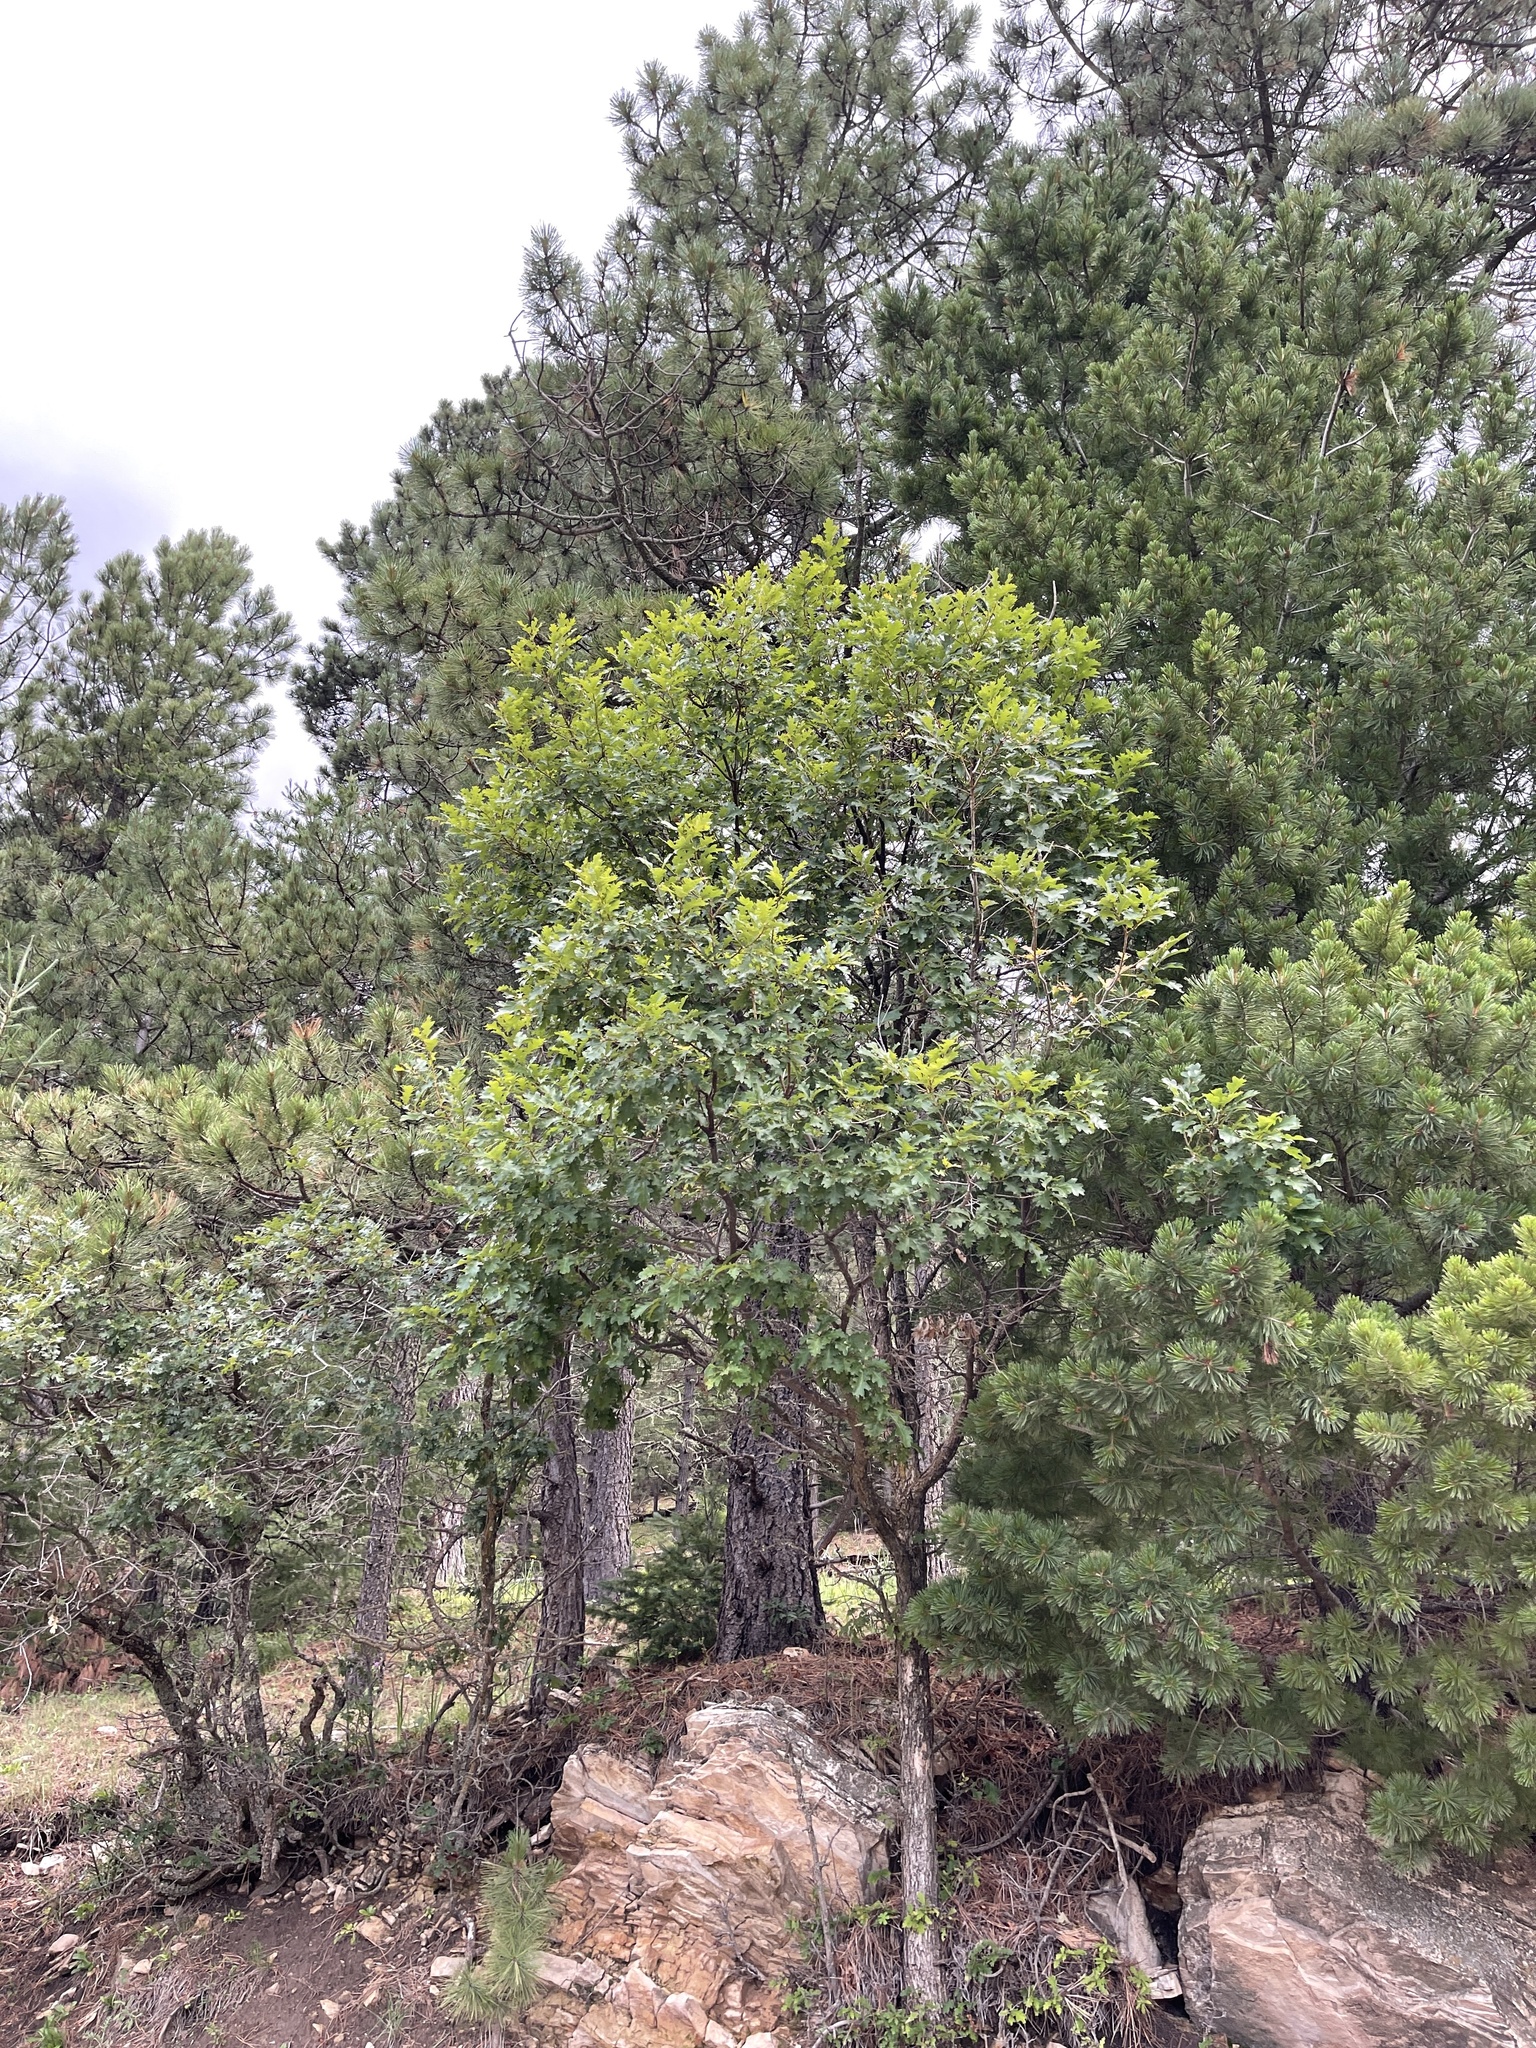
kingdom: Plantae
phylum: Tracheophyta
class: Magnoliopsida
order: Fagales
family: Fagaceae
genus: Quercus
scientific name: Quercus gambelii
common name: Gambel oak
